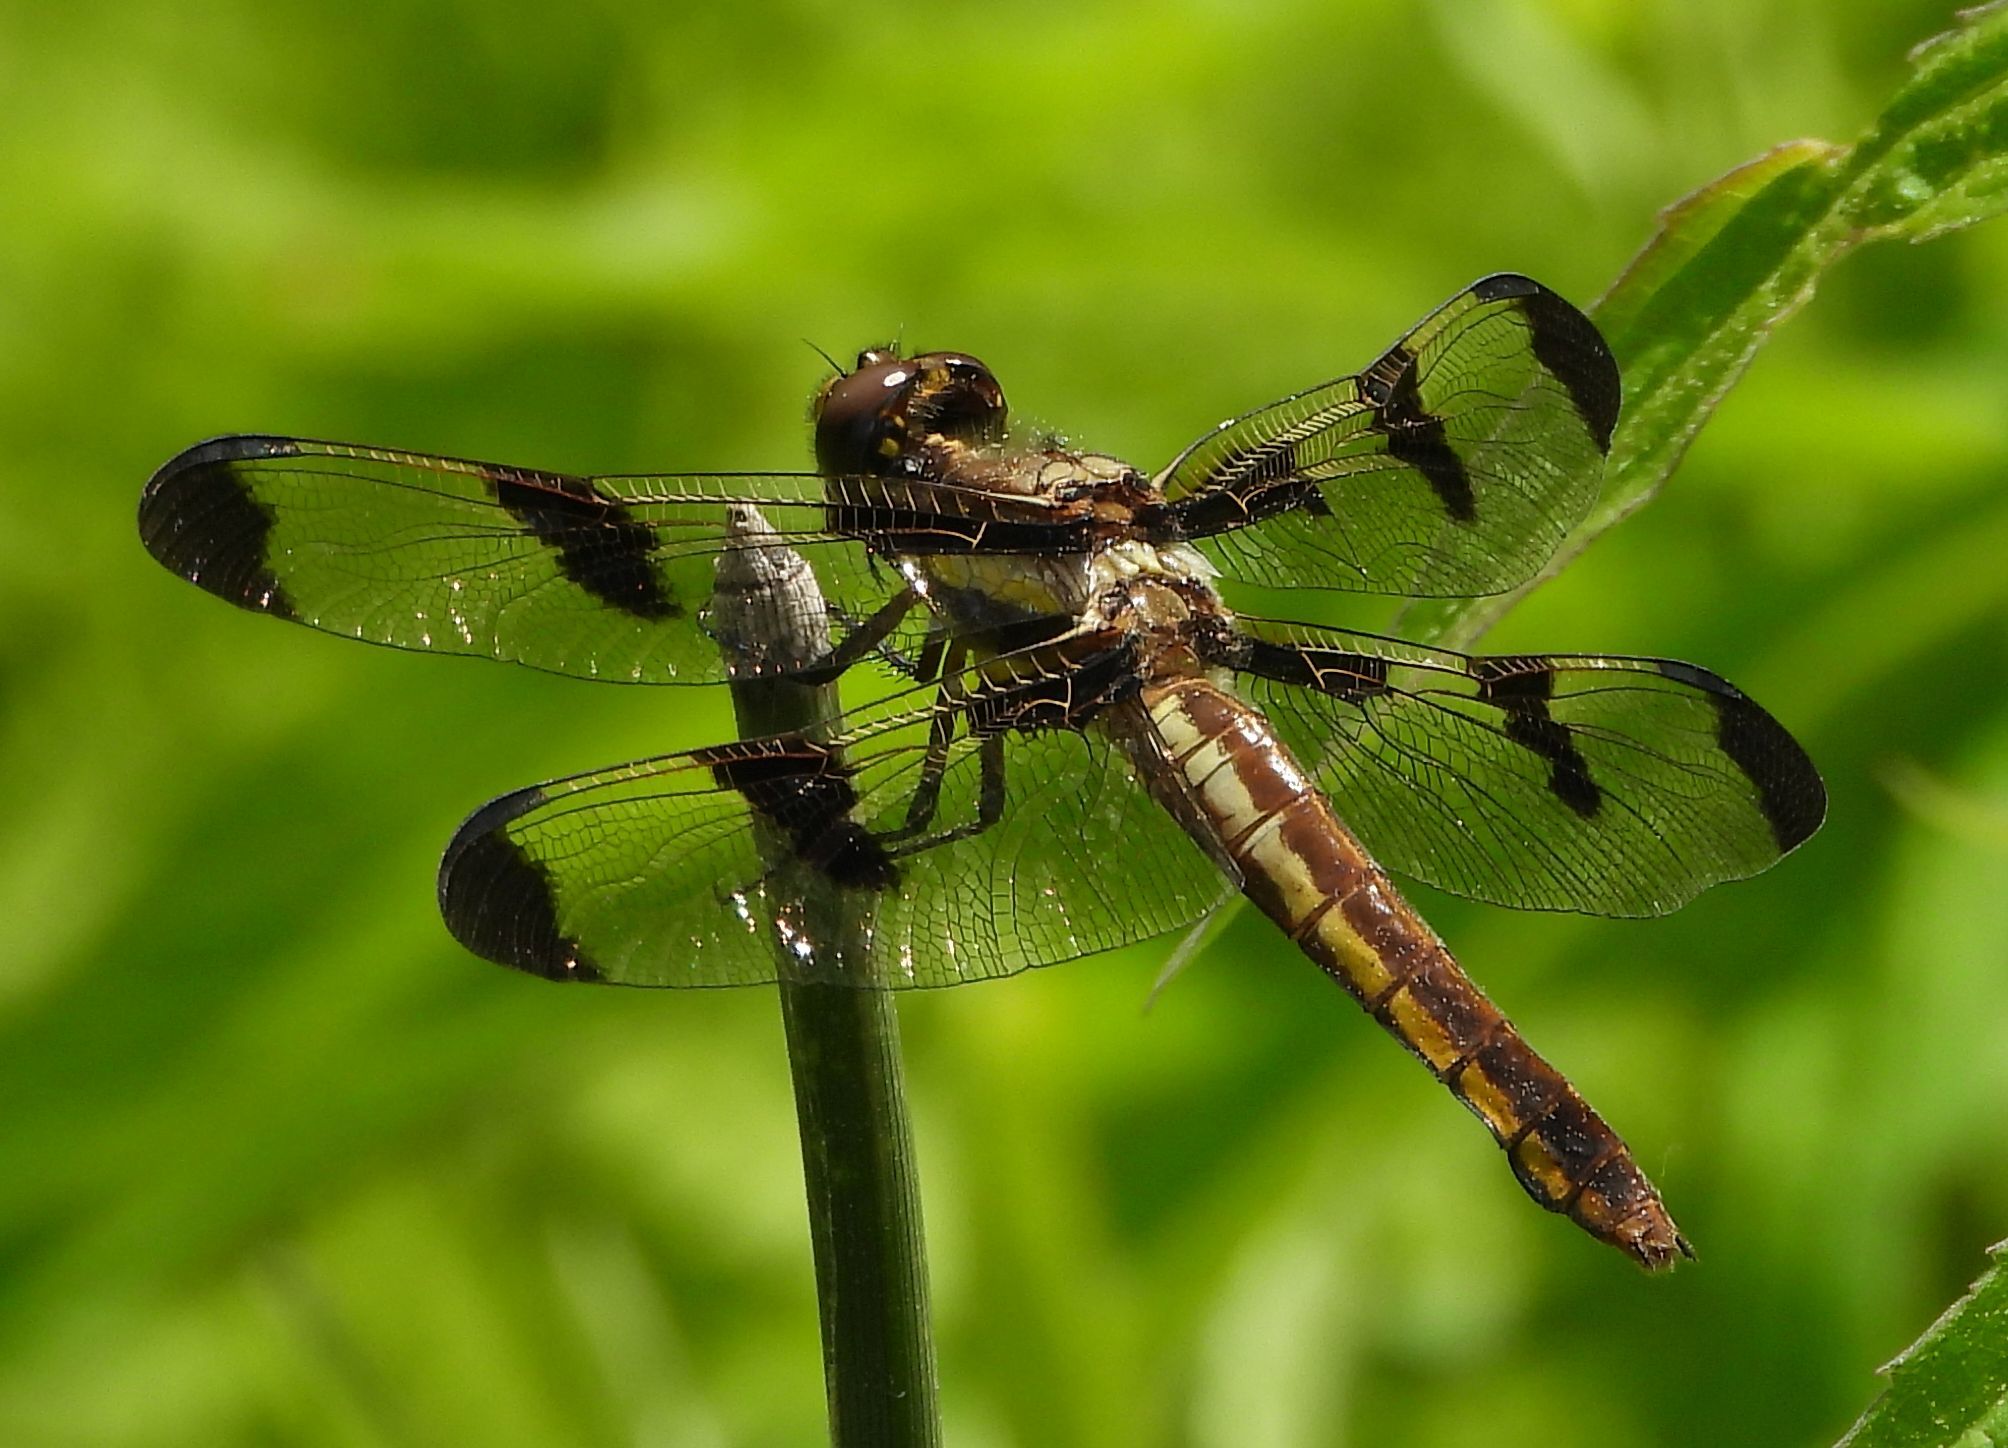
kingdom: Animalia
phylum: Arthropoda
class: Insecta
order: Odonata
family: Libellulidae
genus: Libellula
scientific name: Libellula pulchella
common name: Twelve-spotted skimmer
